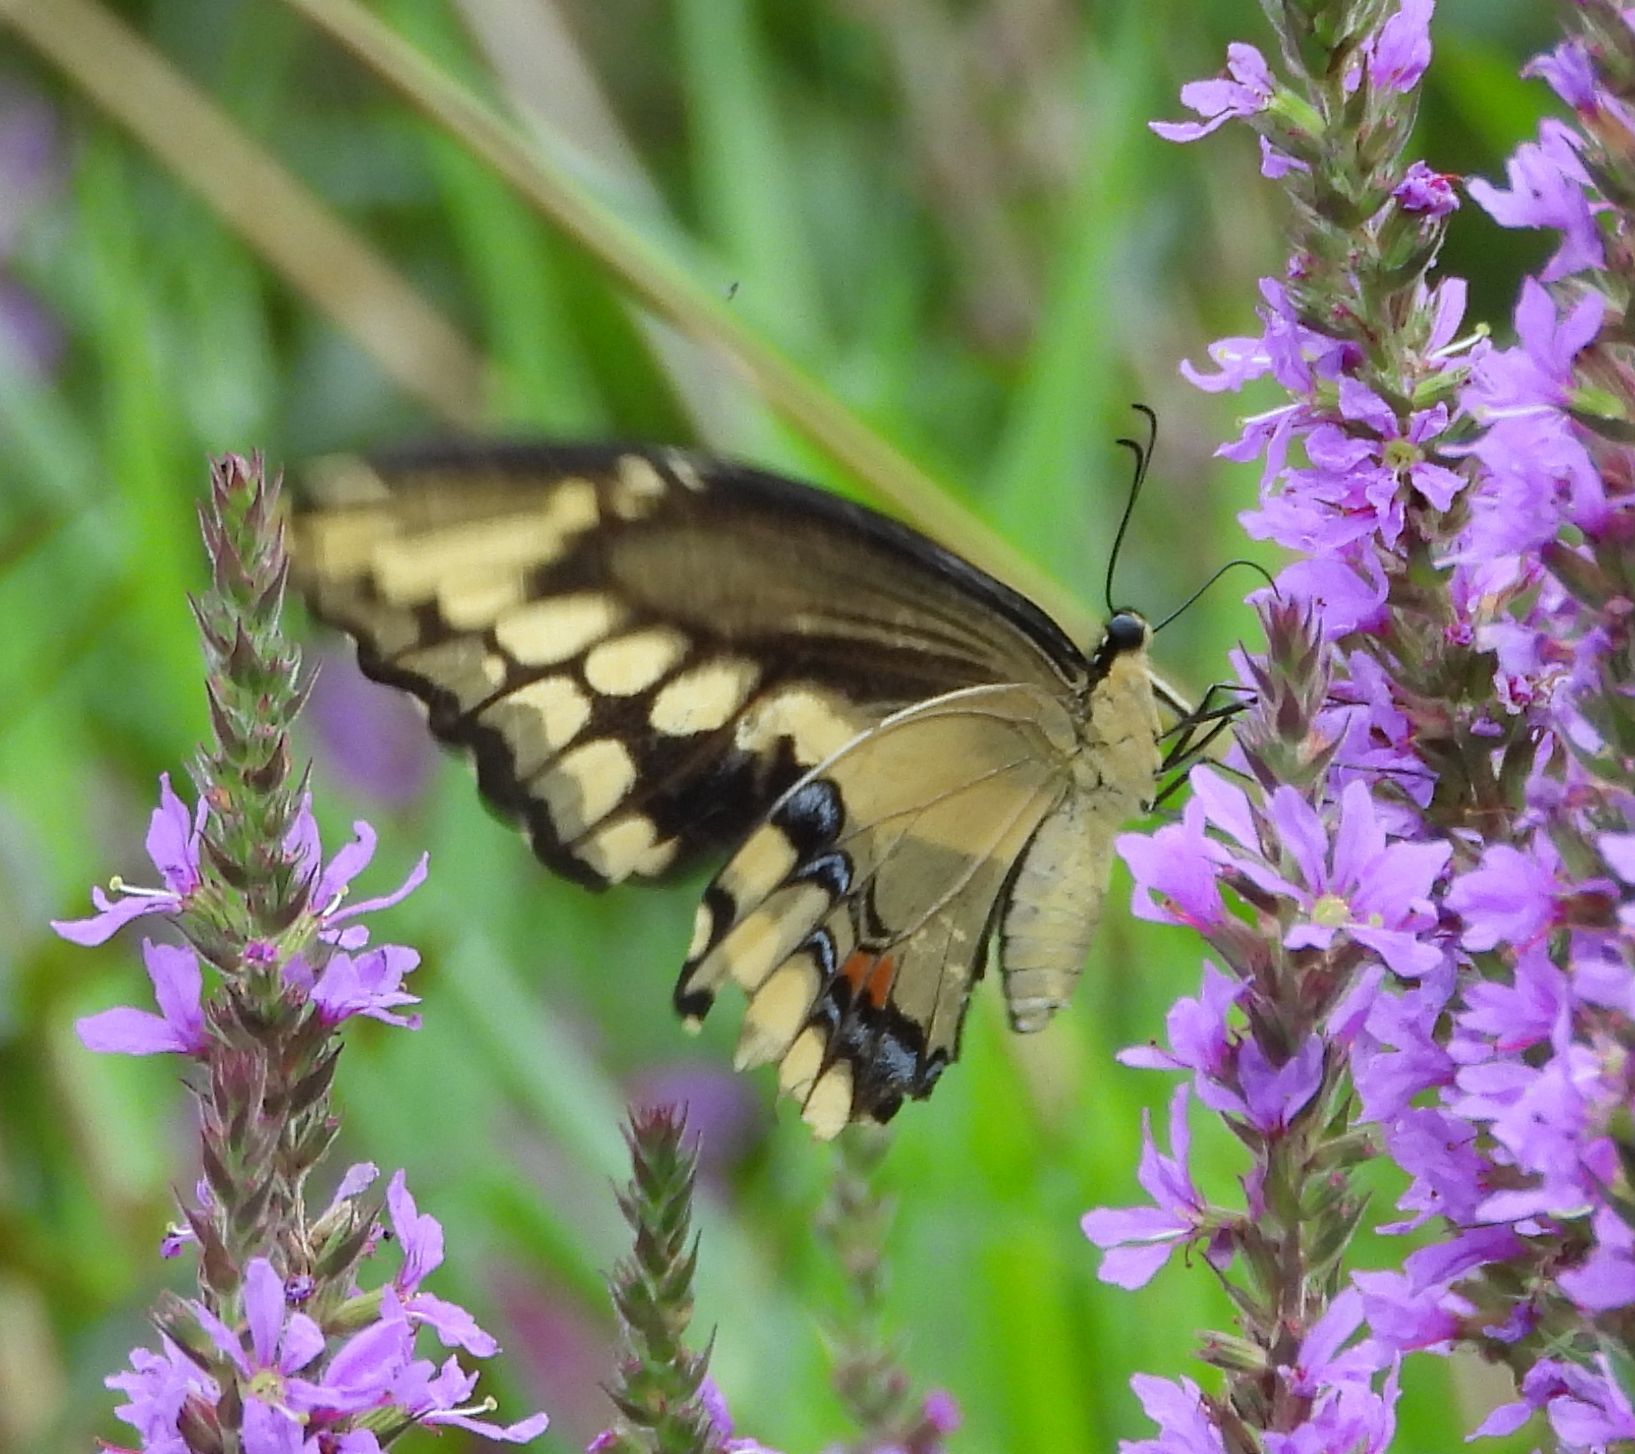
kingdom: Animalia
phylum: Arthropoda
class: Insecta
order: Lepidoptera
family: Papilionidae
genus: Papilio
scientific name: Papilio cresphontes
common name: Giant swallowtail
